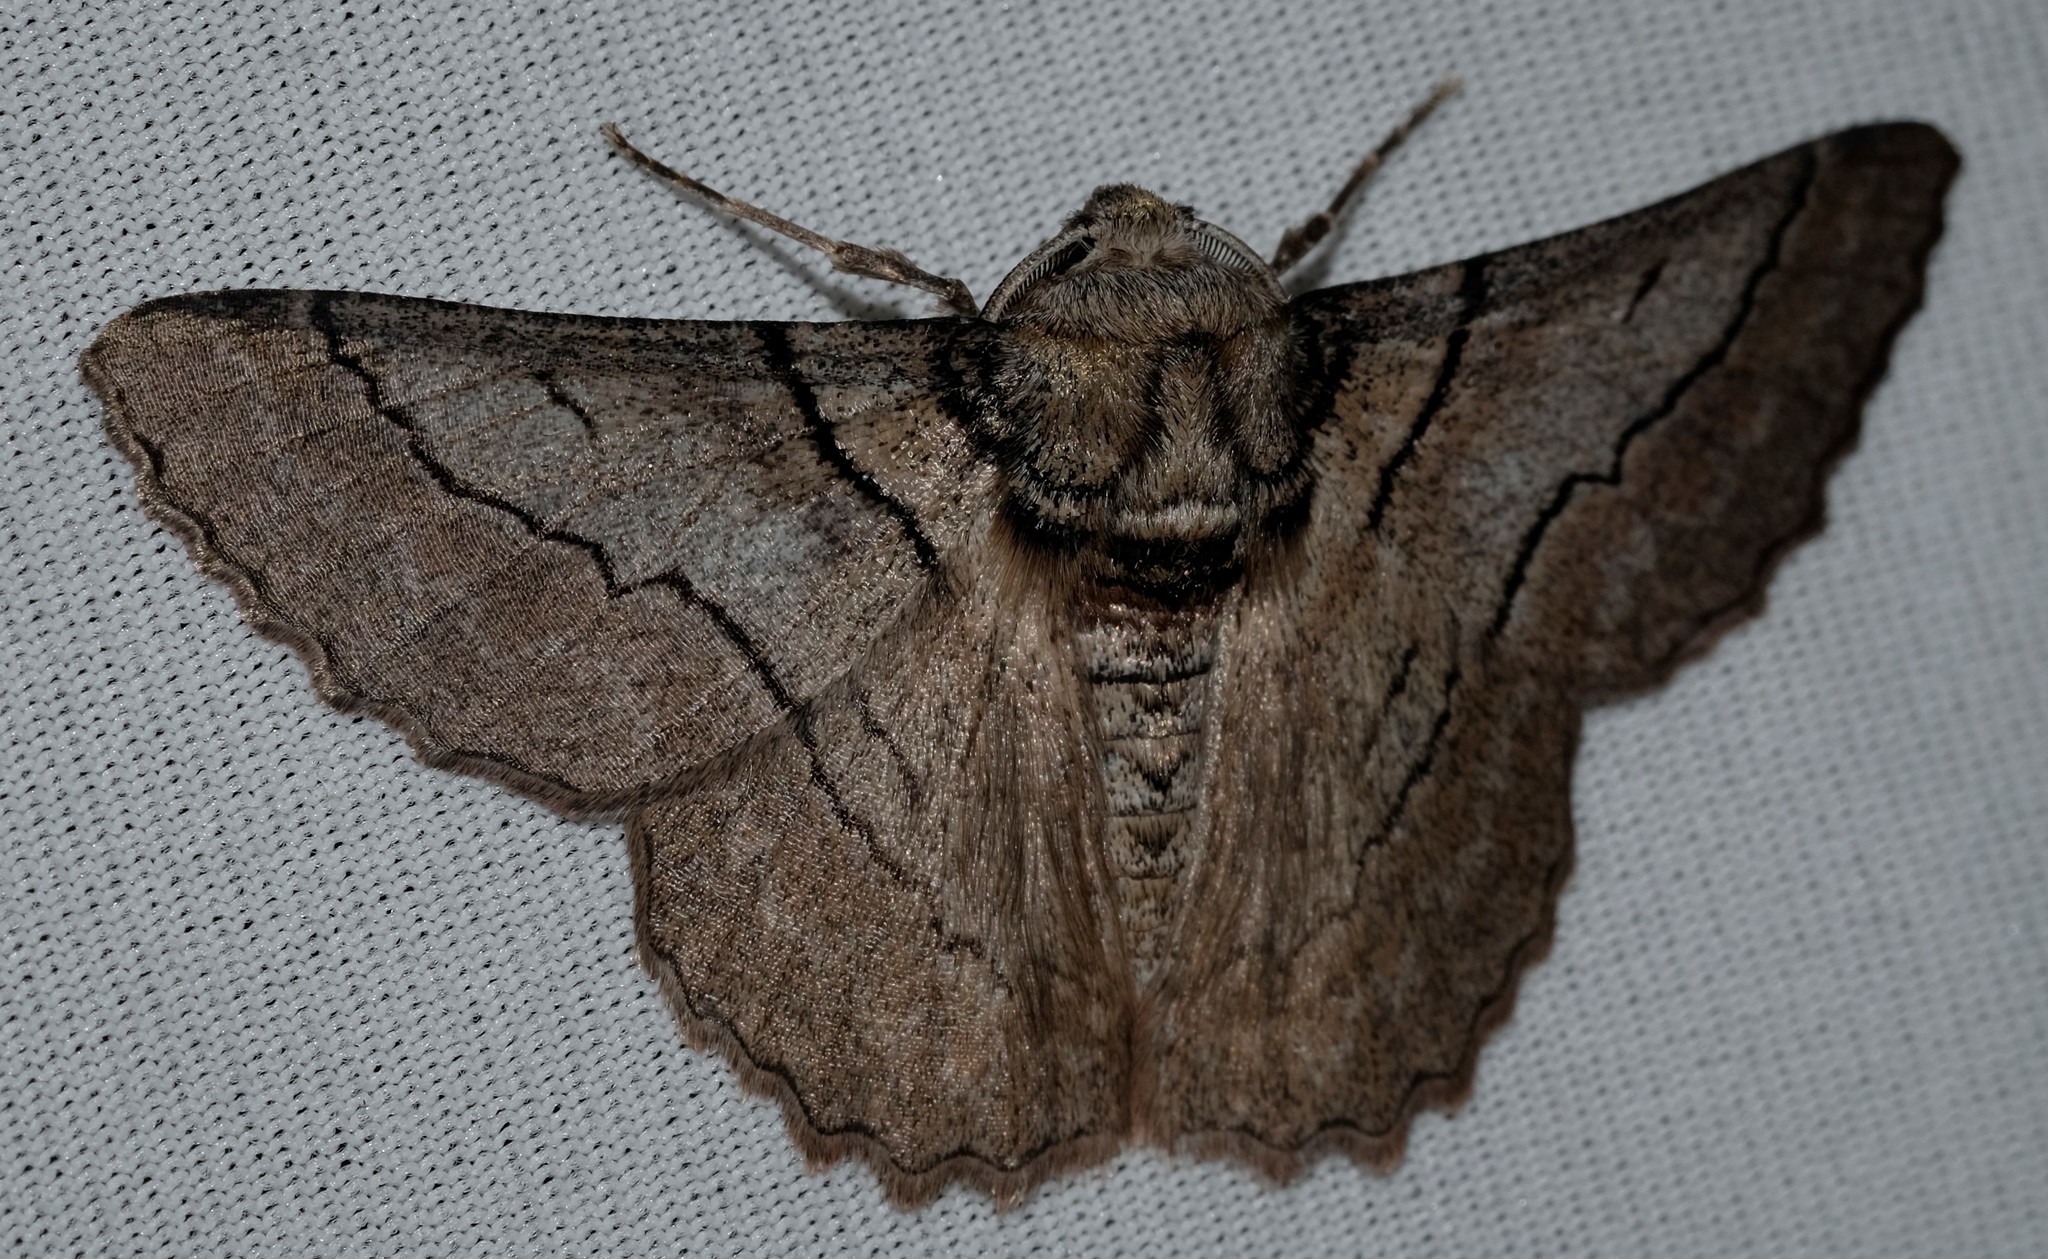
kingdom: Animalia
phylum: Arthropoda
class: Insecta
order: Lepidoptera
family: Geometridae
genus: Hypobapta
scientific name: Hypobapta tachyhalotaria
